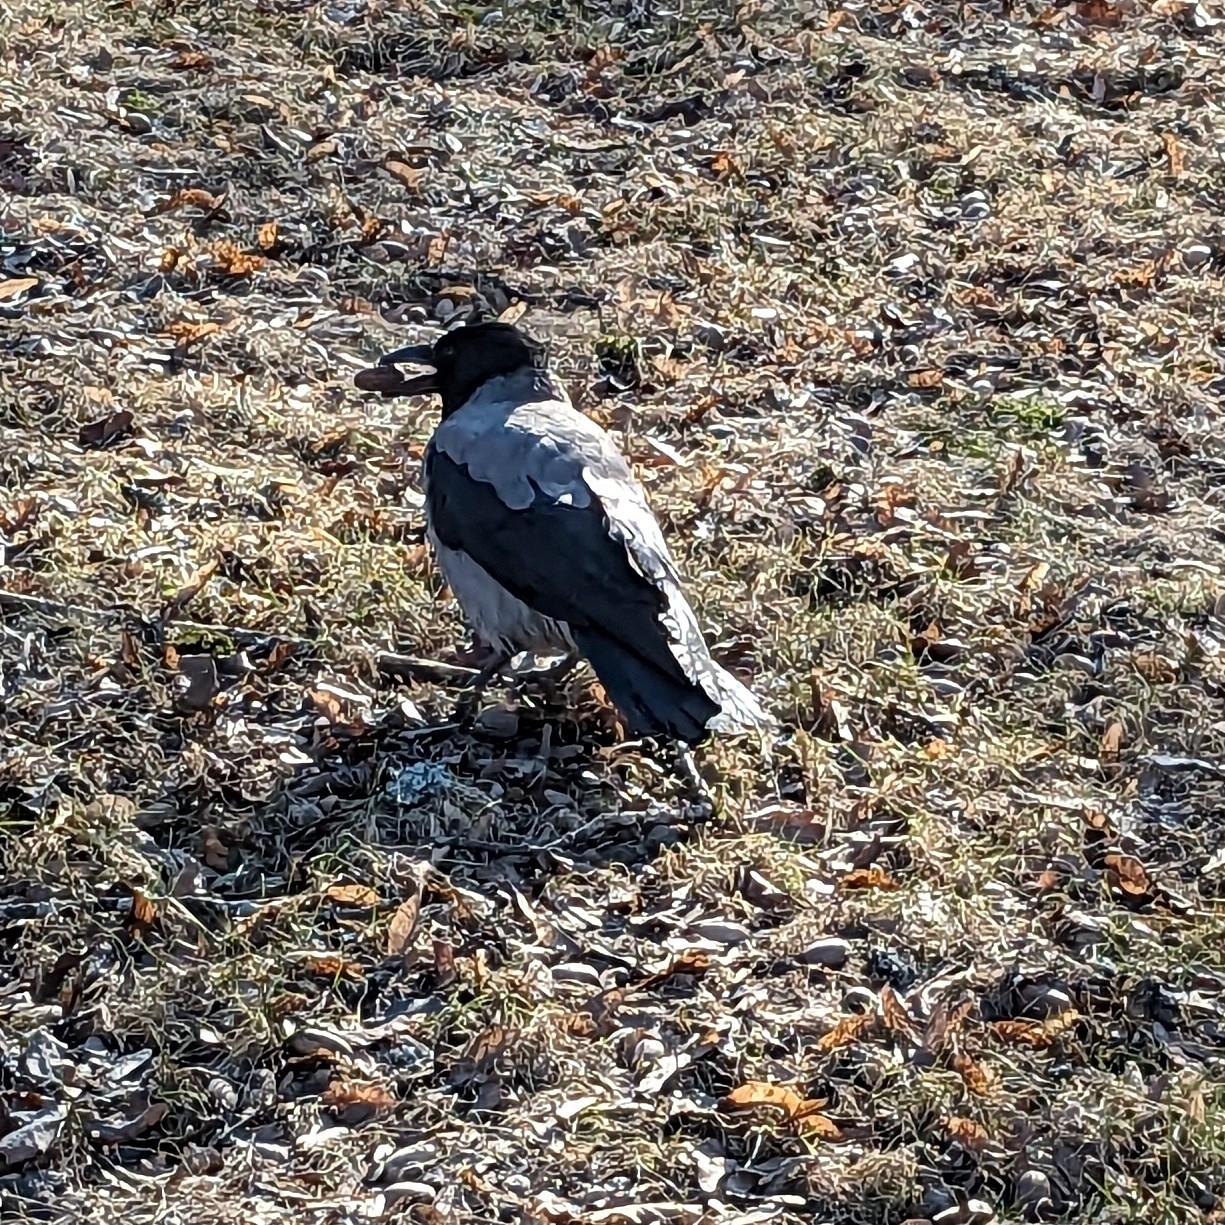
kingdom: Animalia
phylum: Chordata
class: Aves
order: Passeriformes
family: Corvidae
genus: Corvus
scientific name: Corvus cornix
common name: Hooded crow
